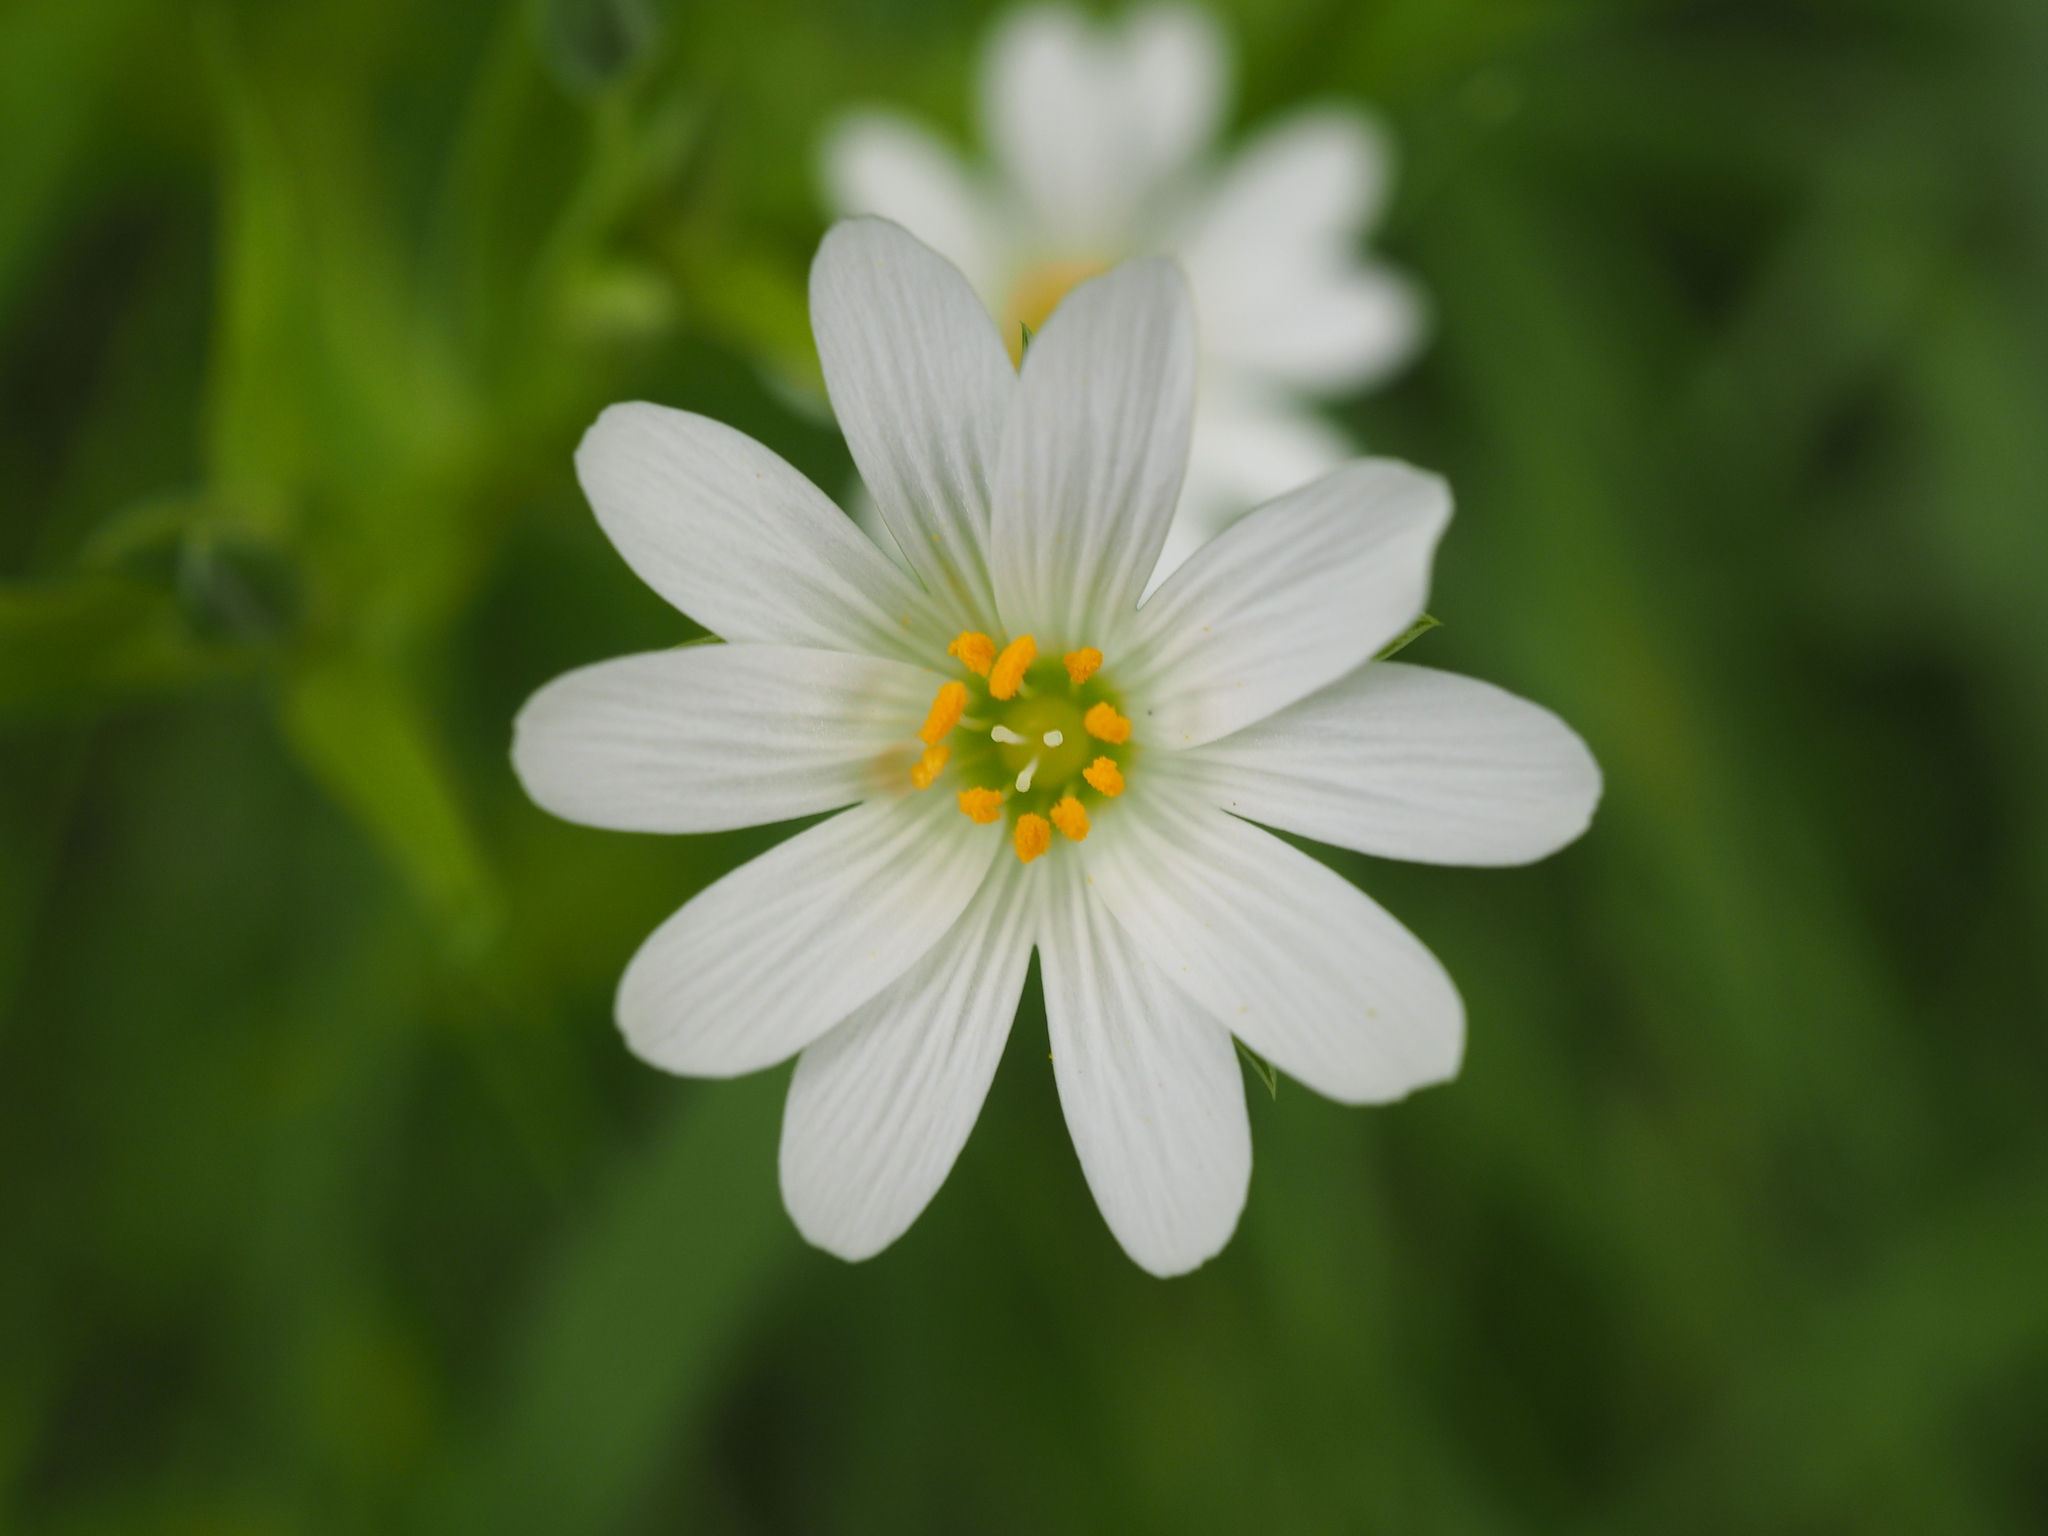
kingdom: Plantae
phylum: Tracheophyta
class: Magnoliopsida
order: Caryophyllales
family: Caryophyllaceae
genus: Rabelera
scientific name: Rabelera holostea
